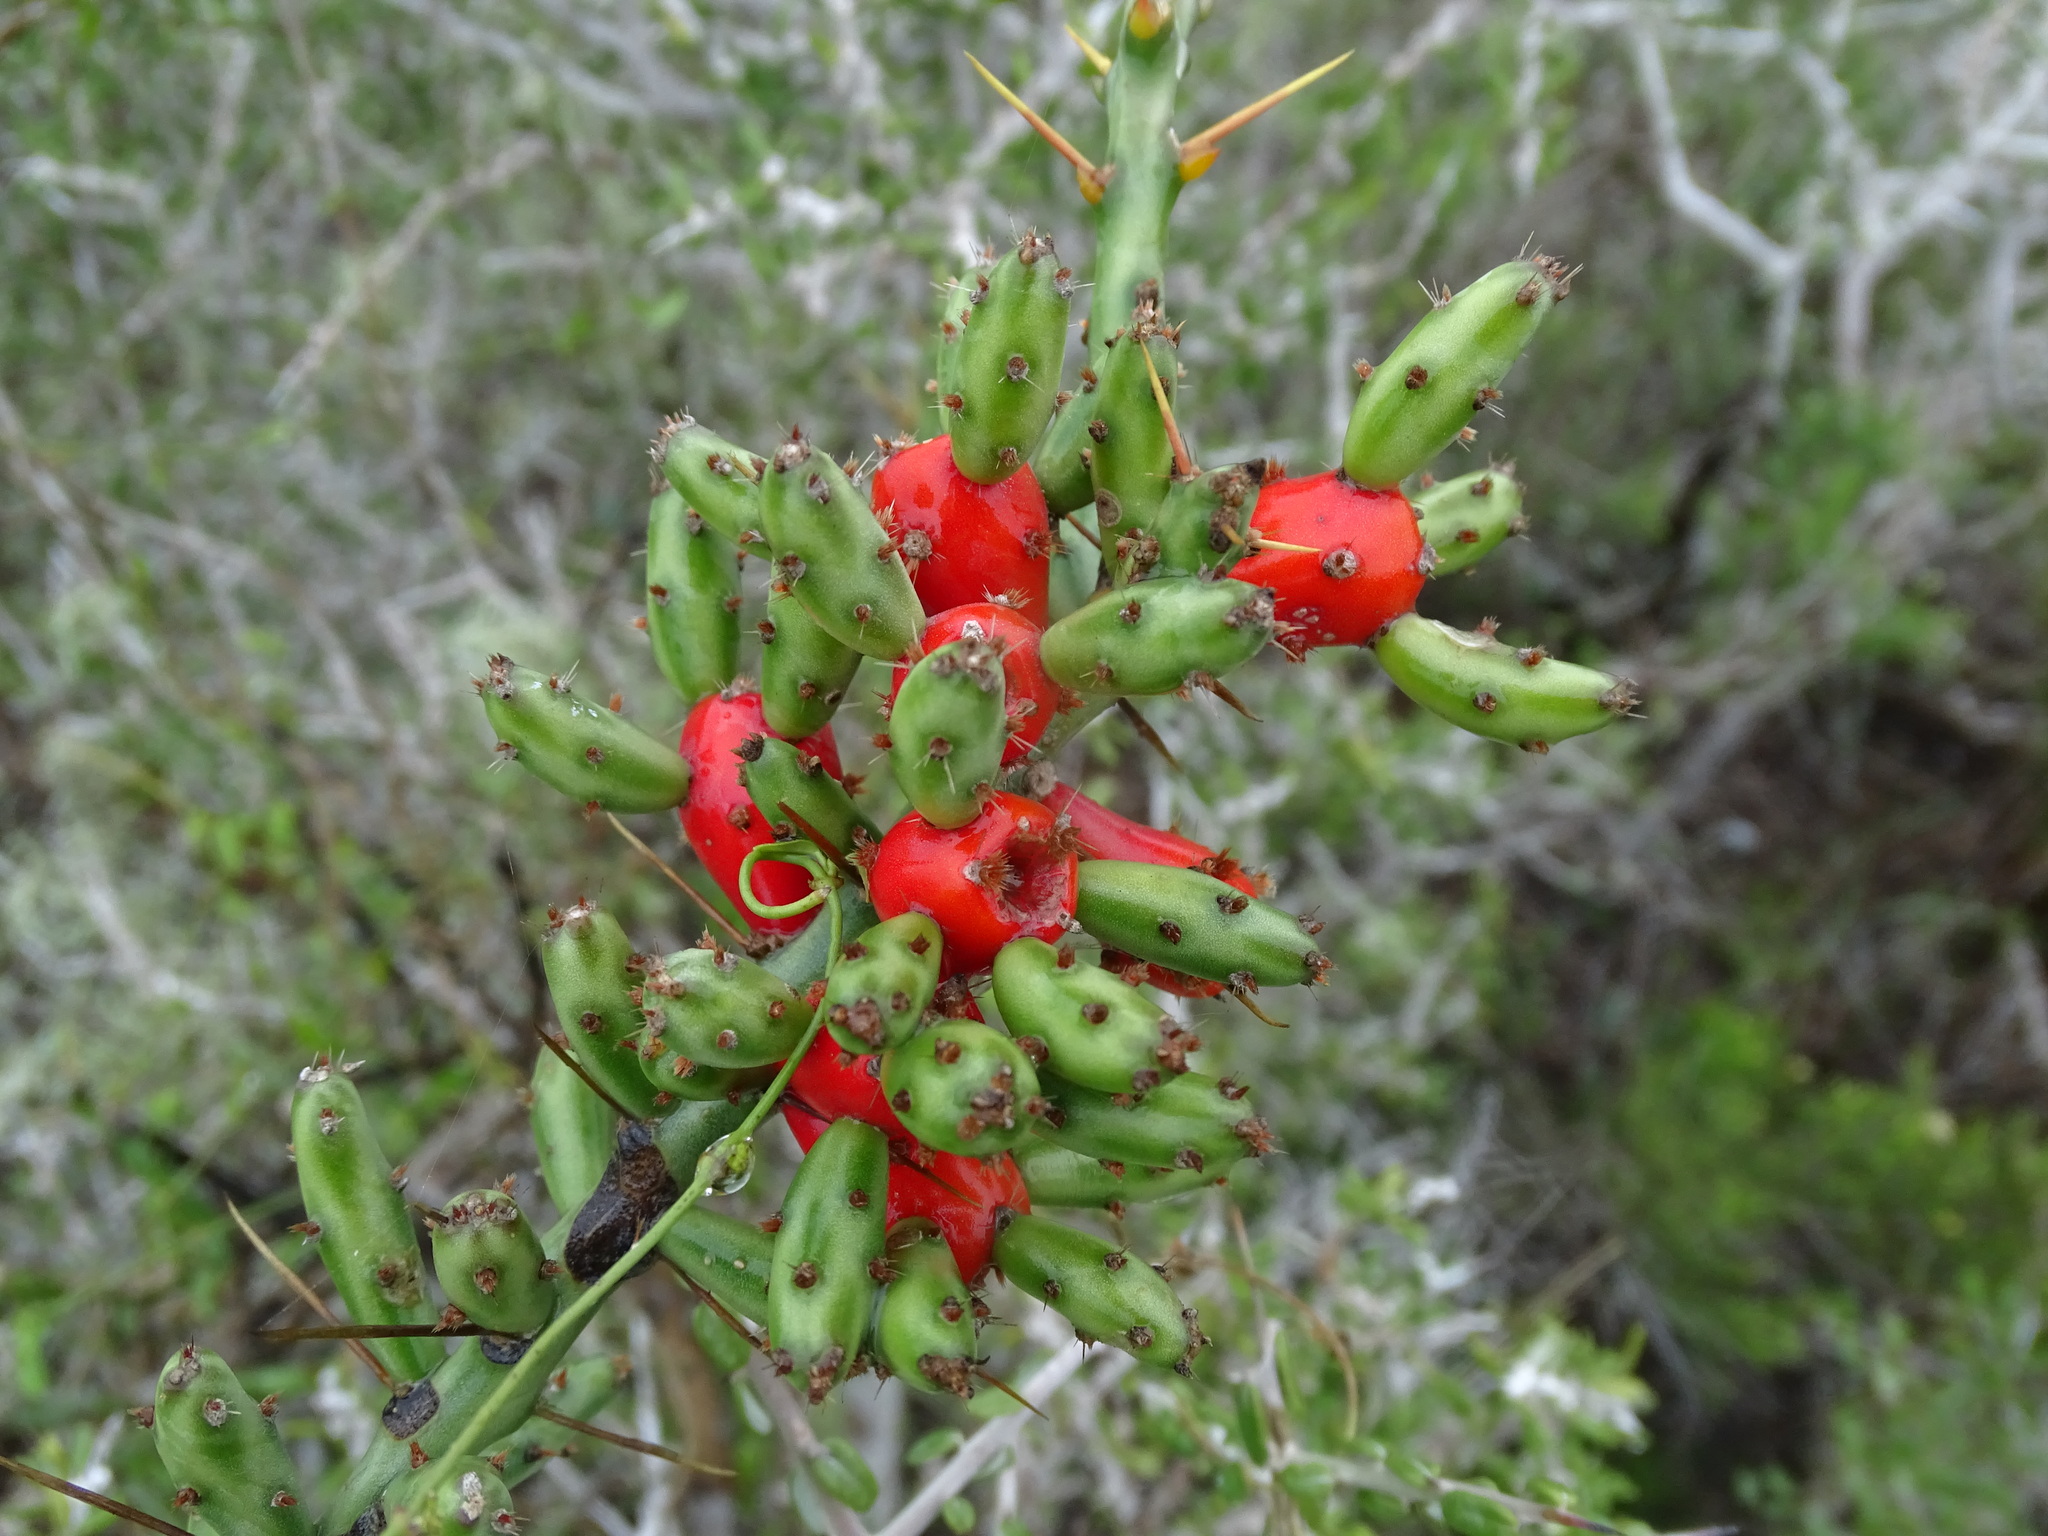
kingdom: Plantae
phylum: Tracheophyta
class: Magnoliopsida
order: Caryophyllales
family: Cactaceae
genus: Cylindropuntia
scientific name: Cylindropuntia leptocaulis
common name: Christmas cactus
